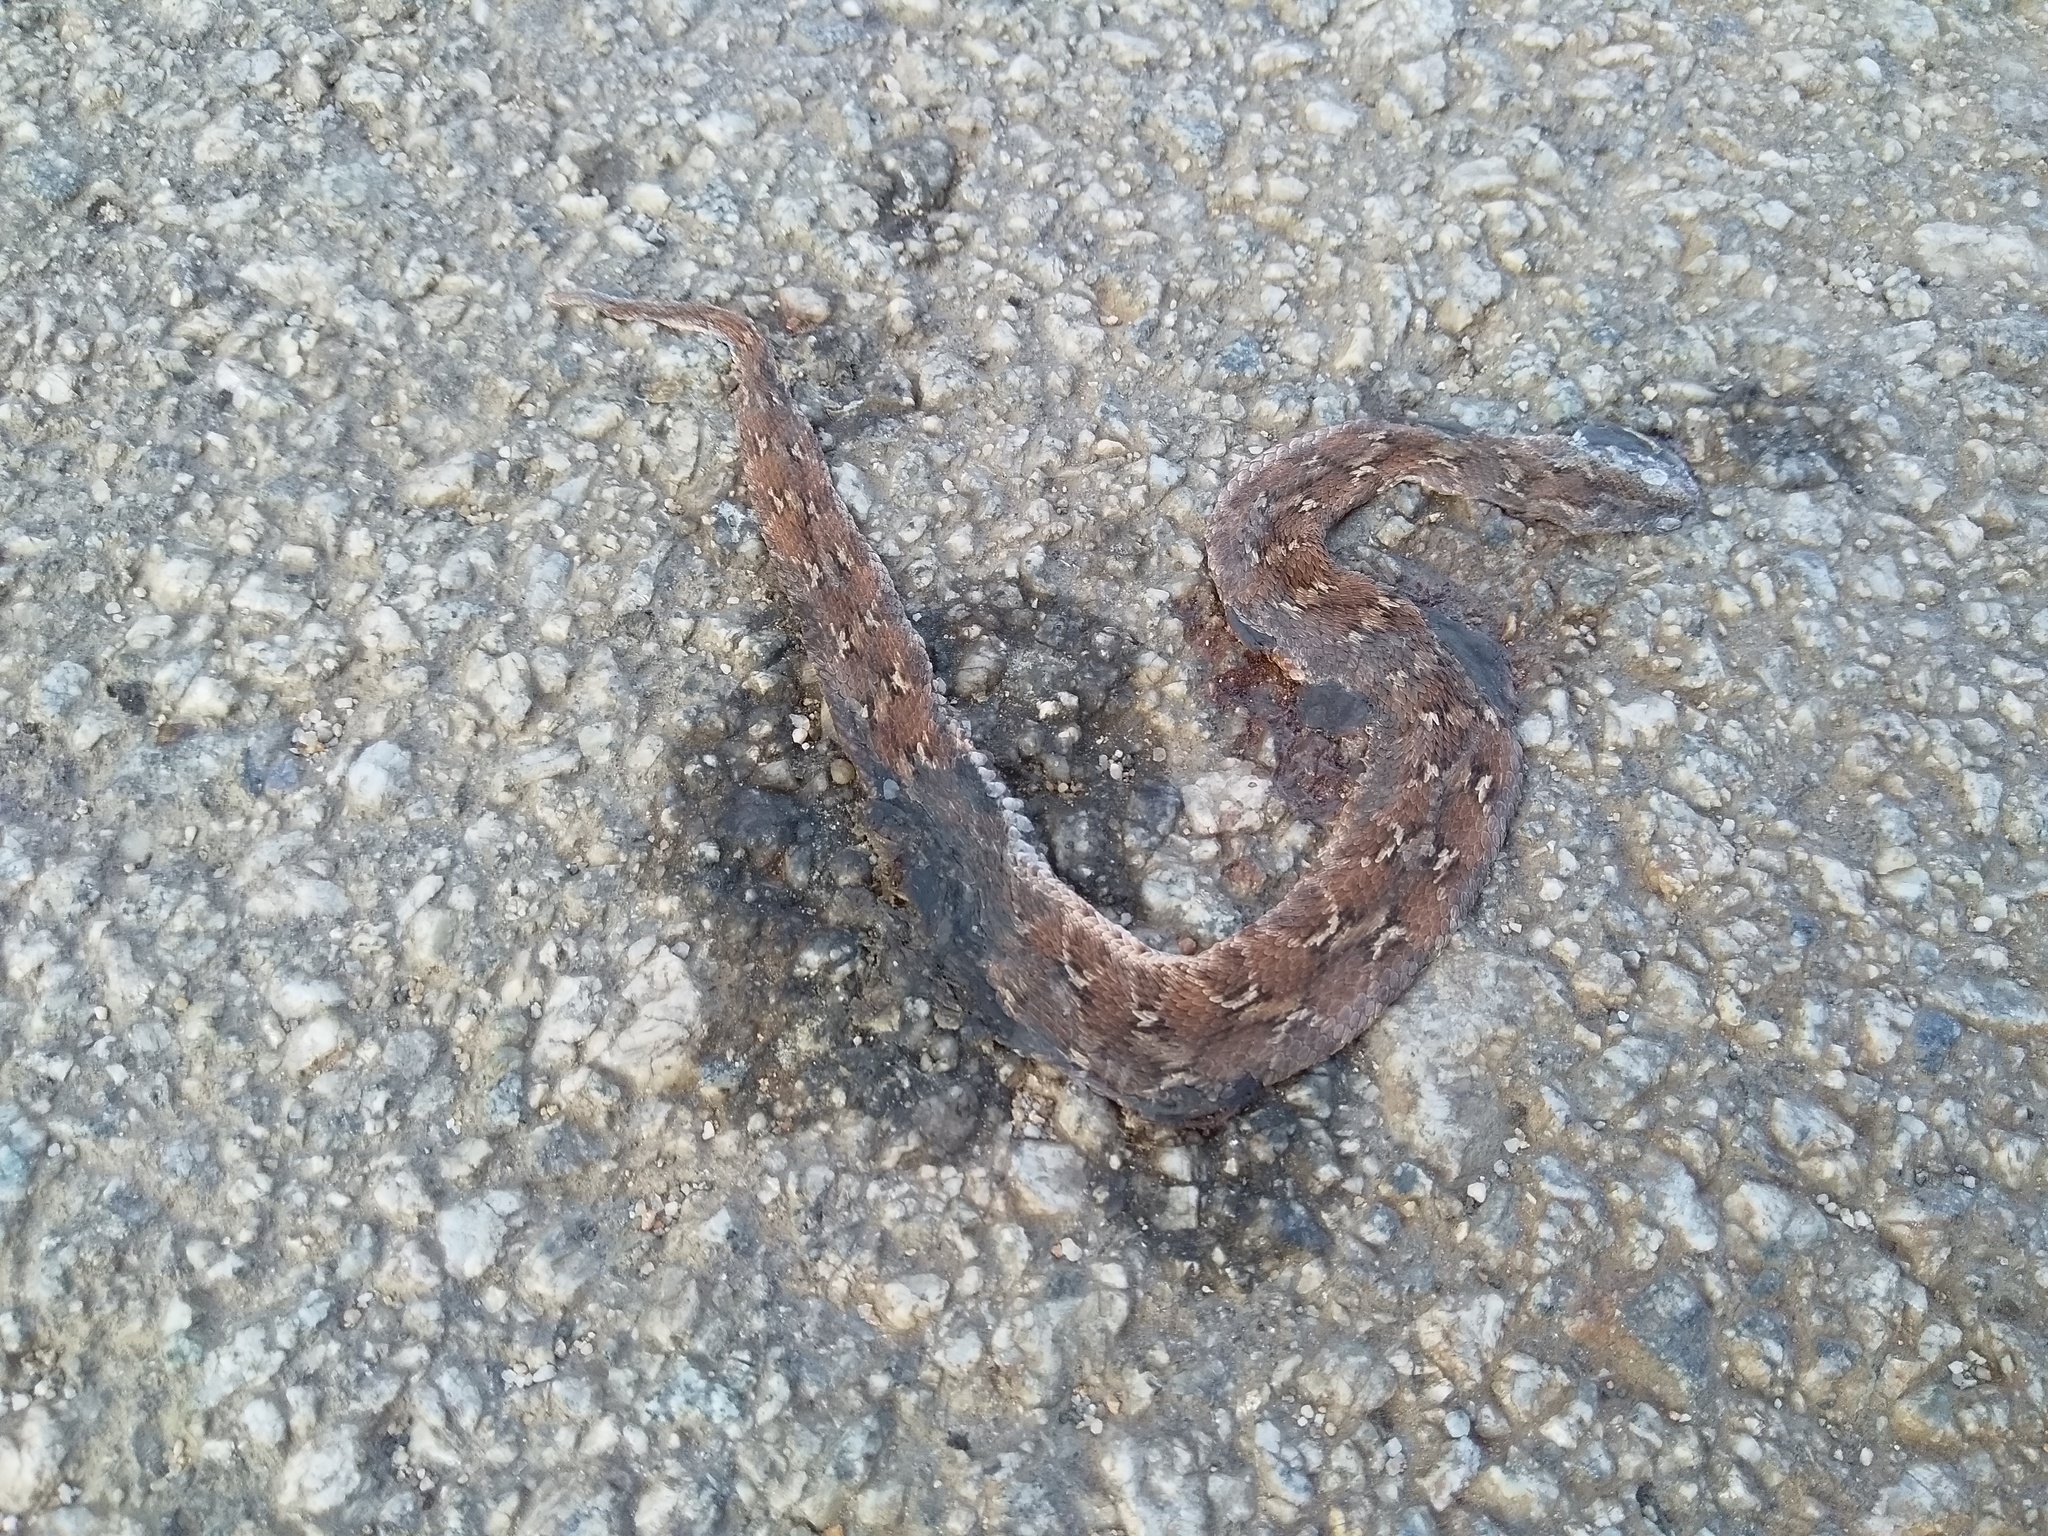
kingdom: Animalia
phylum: Chordata
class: Squamata
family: Viperidae
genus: Echis
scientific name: Echis carinatus
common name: Saw-scaled viper
